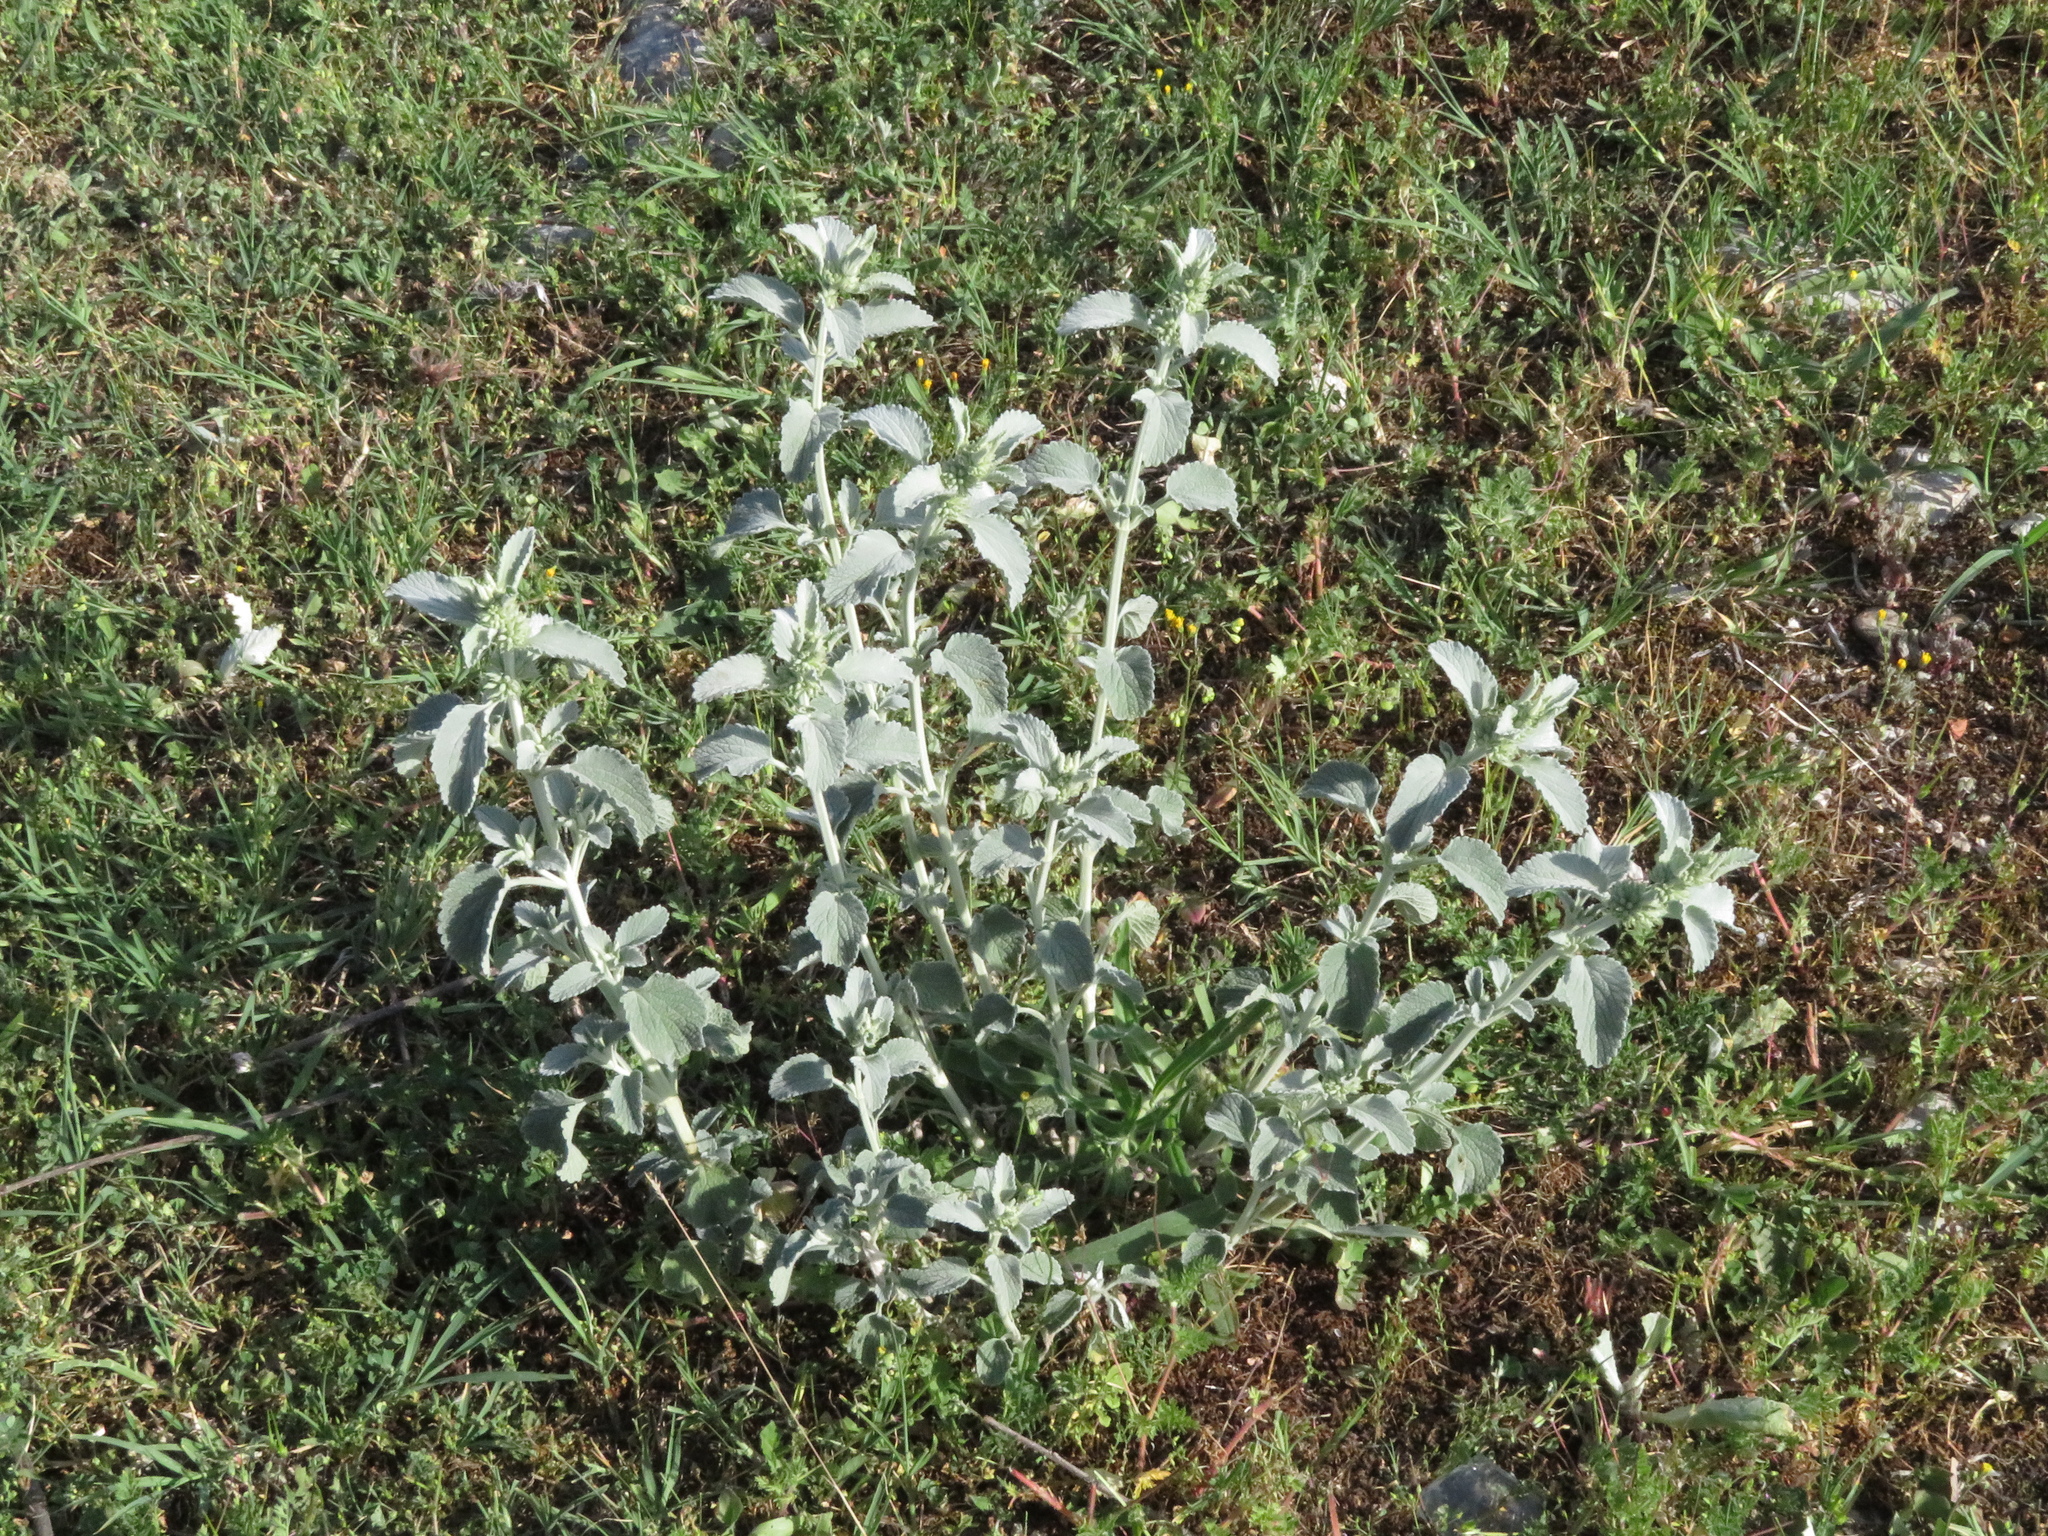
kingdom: Plantae
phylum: Tracheophyta
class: Magnoliopsida
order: Lamiales
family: Lamiaceae
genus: Marrubium
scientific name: Marrubium incanum
